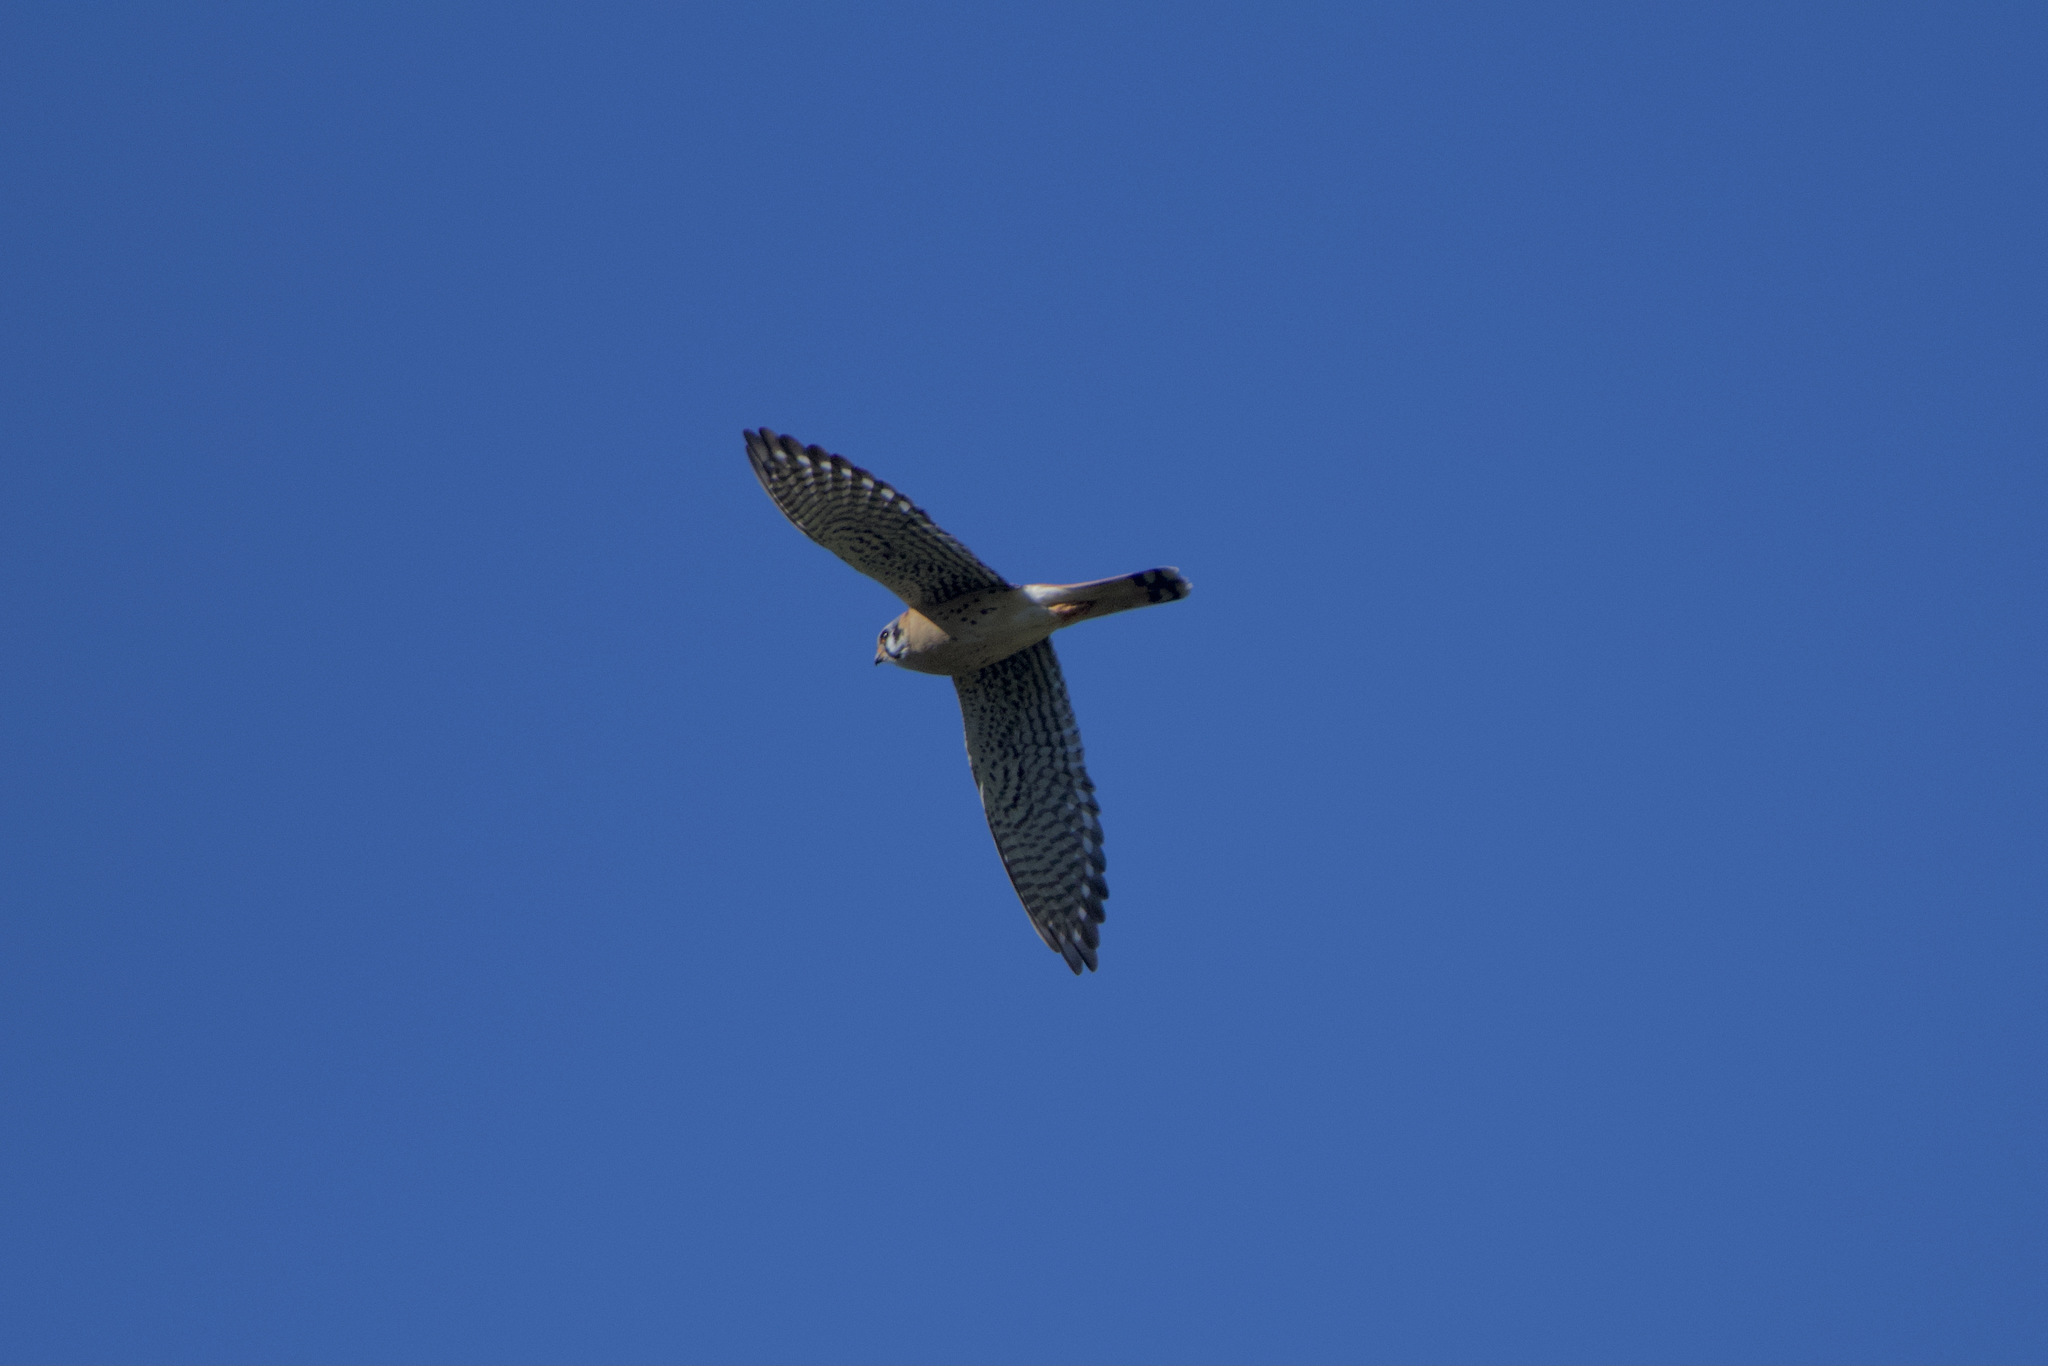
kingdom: Animalia
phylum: Chordata
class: Aves
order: Falconiformes
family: Falconidae
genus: Falco
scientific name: Falco sparverius
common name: American kestrel
